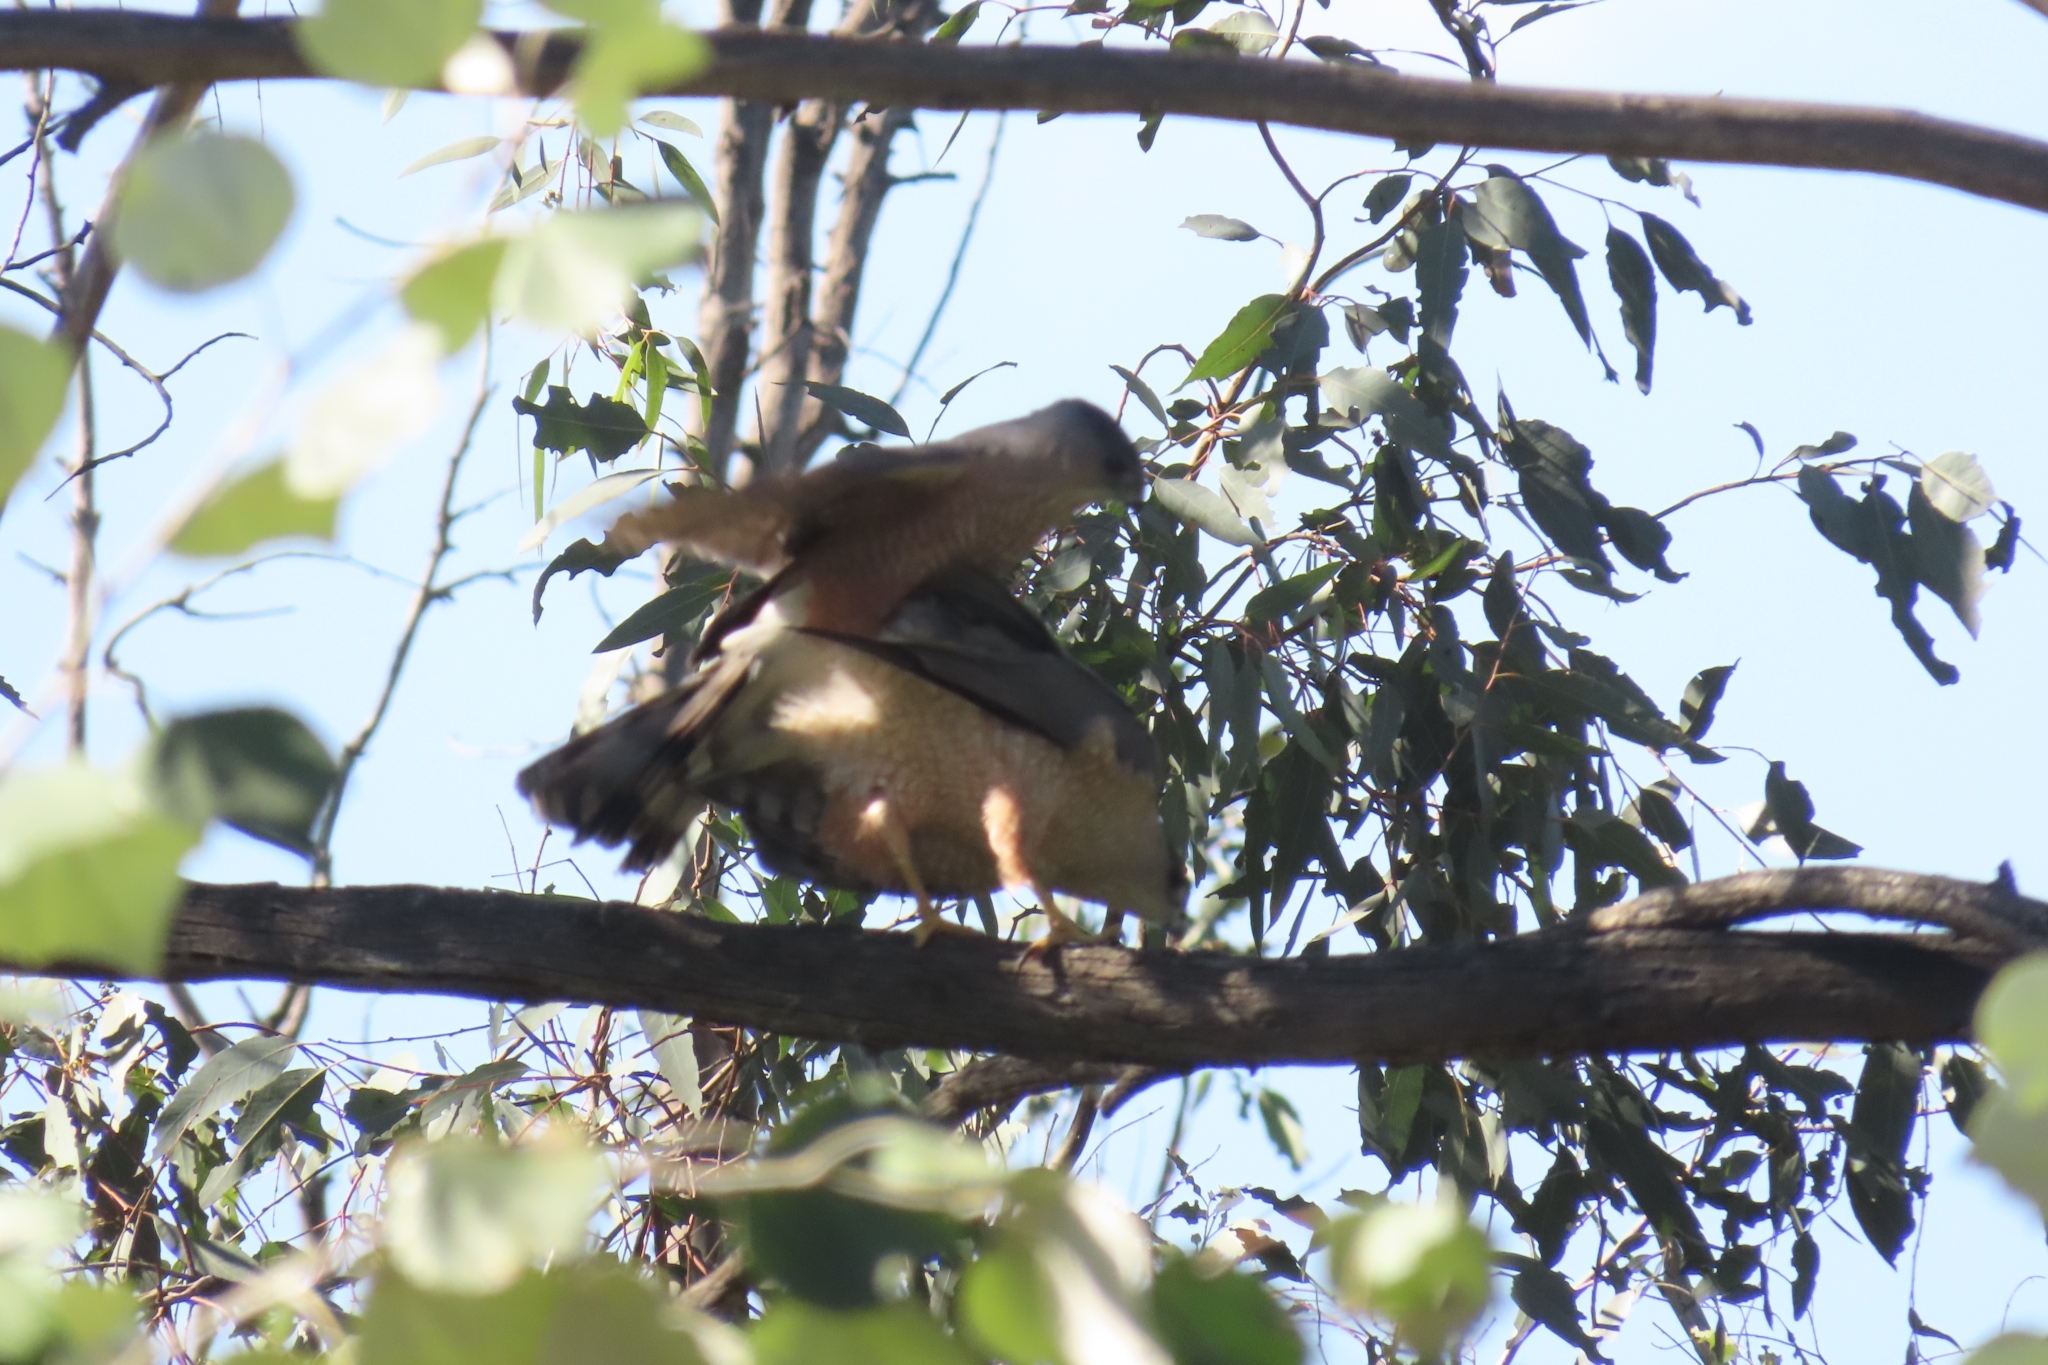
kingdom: Animalia
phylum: Chordata
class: Aves
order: Accipitriformes
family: Accipitridae
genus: Accipiter
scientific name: Accipiter cooperii
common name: Cooper's hawk
